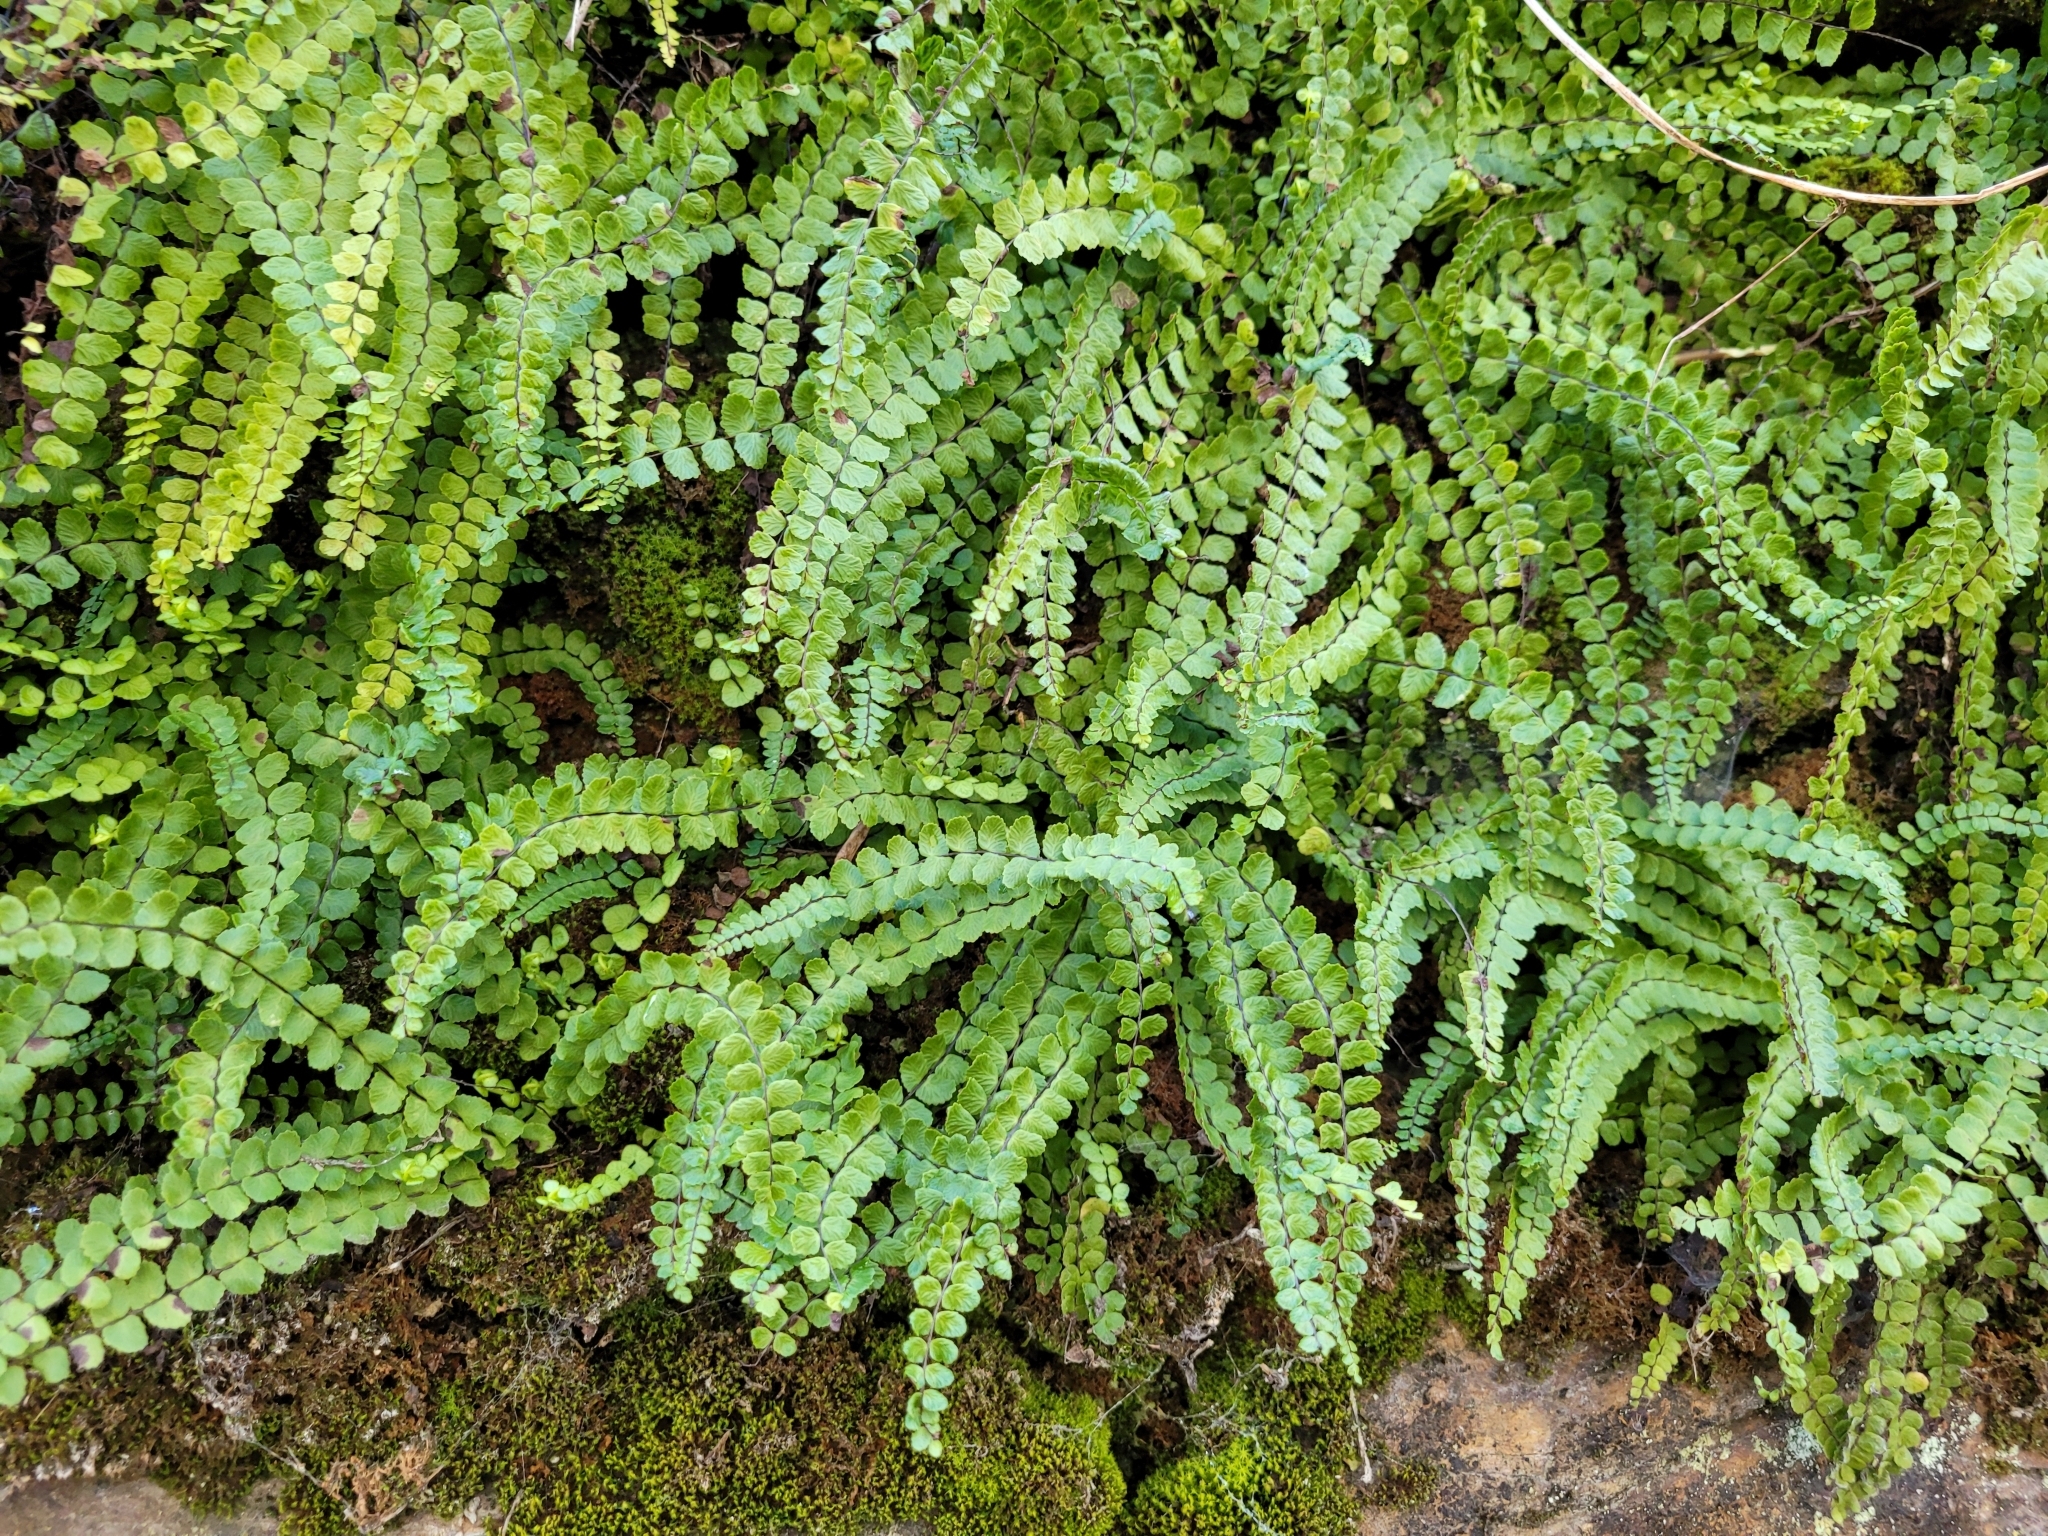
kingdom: Plantae
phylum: Tracheophyta
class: Polypodiopsida
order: Polypodiales
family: Aspleniaceae
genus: Asplenium
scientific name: Asplenium trichomanes
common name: Maidenhair spleenwort
